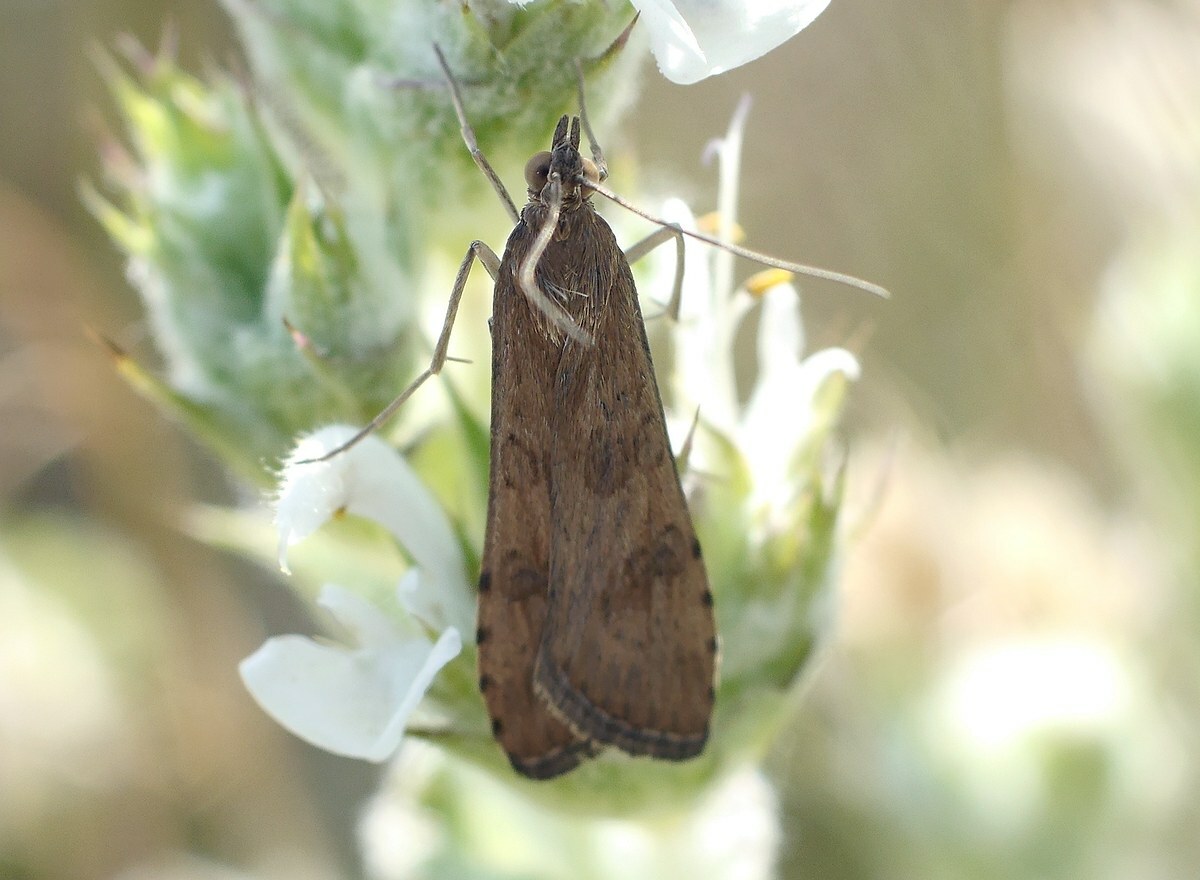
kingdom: Animalia
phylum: Arthropoda
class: Insecta
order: Lepidoptera
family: Crambidae
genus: Nomophila
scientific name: Nomophila noctuella
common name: Rush veneer
